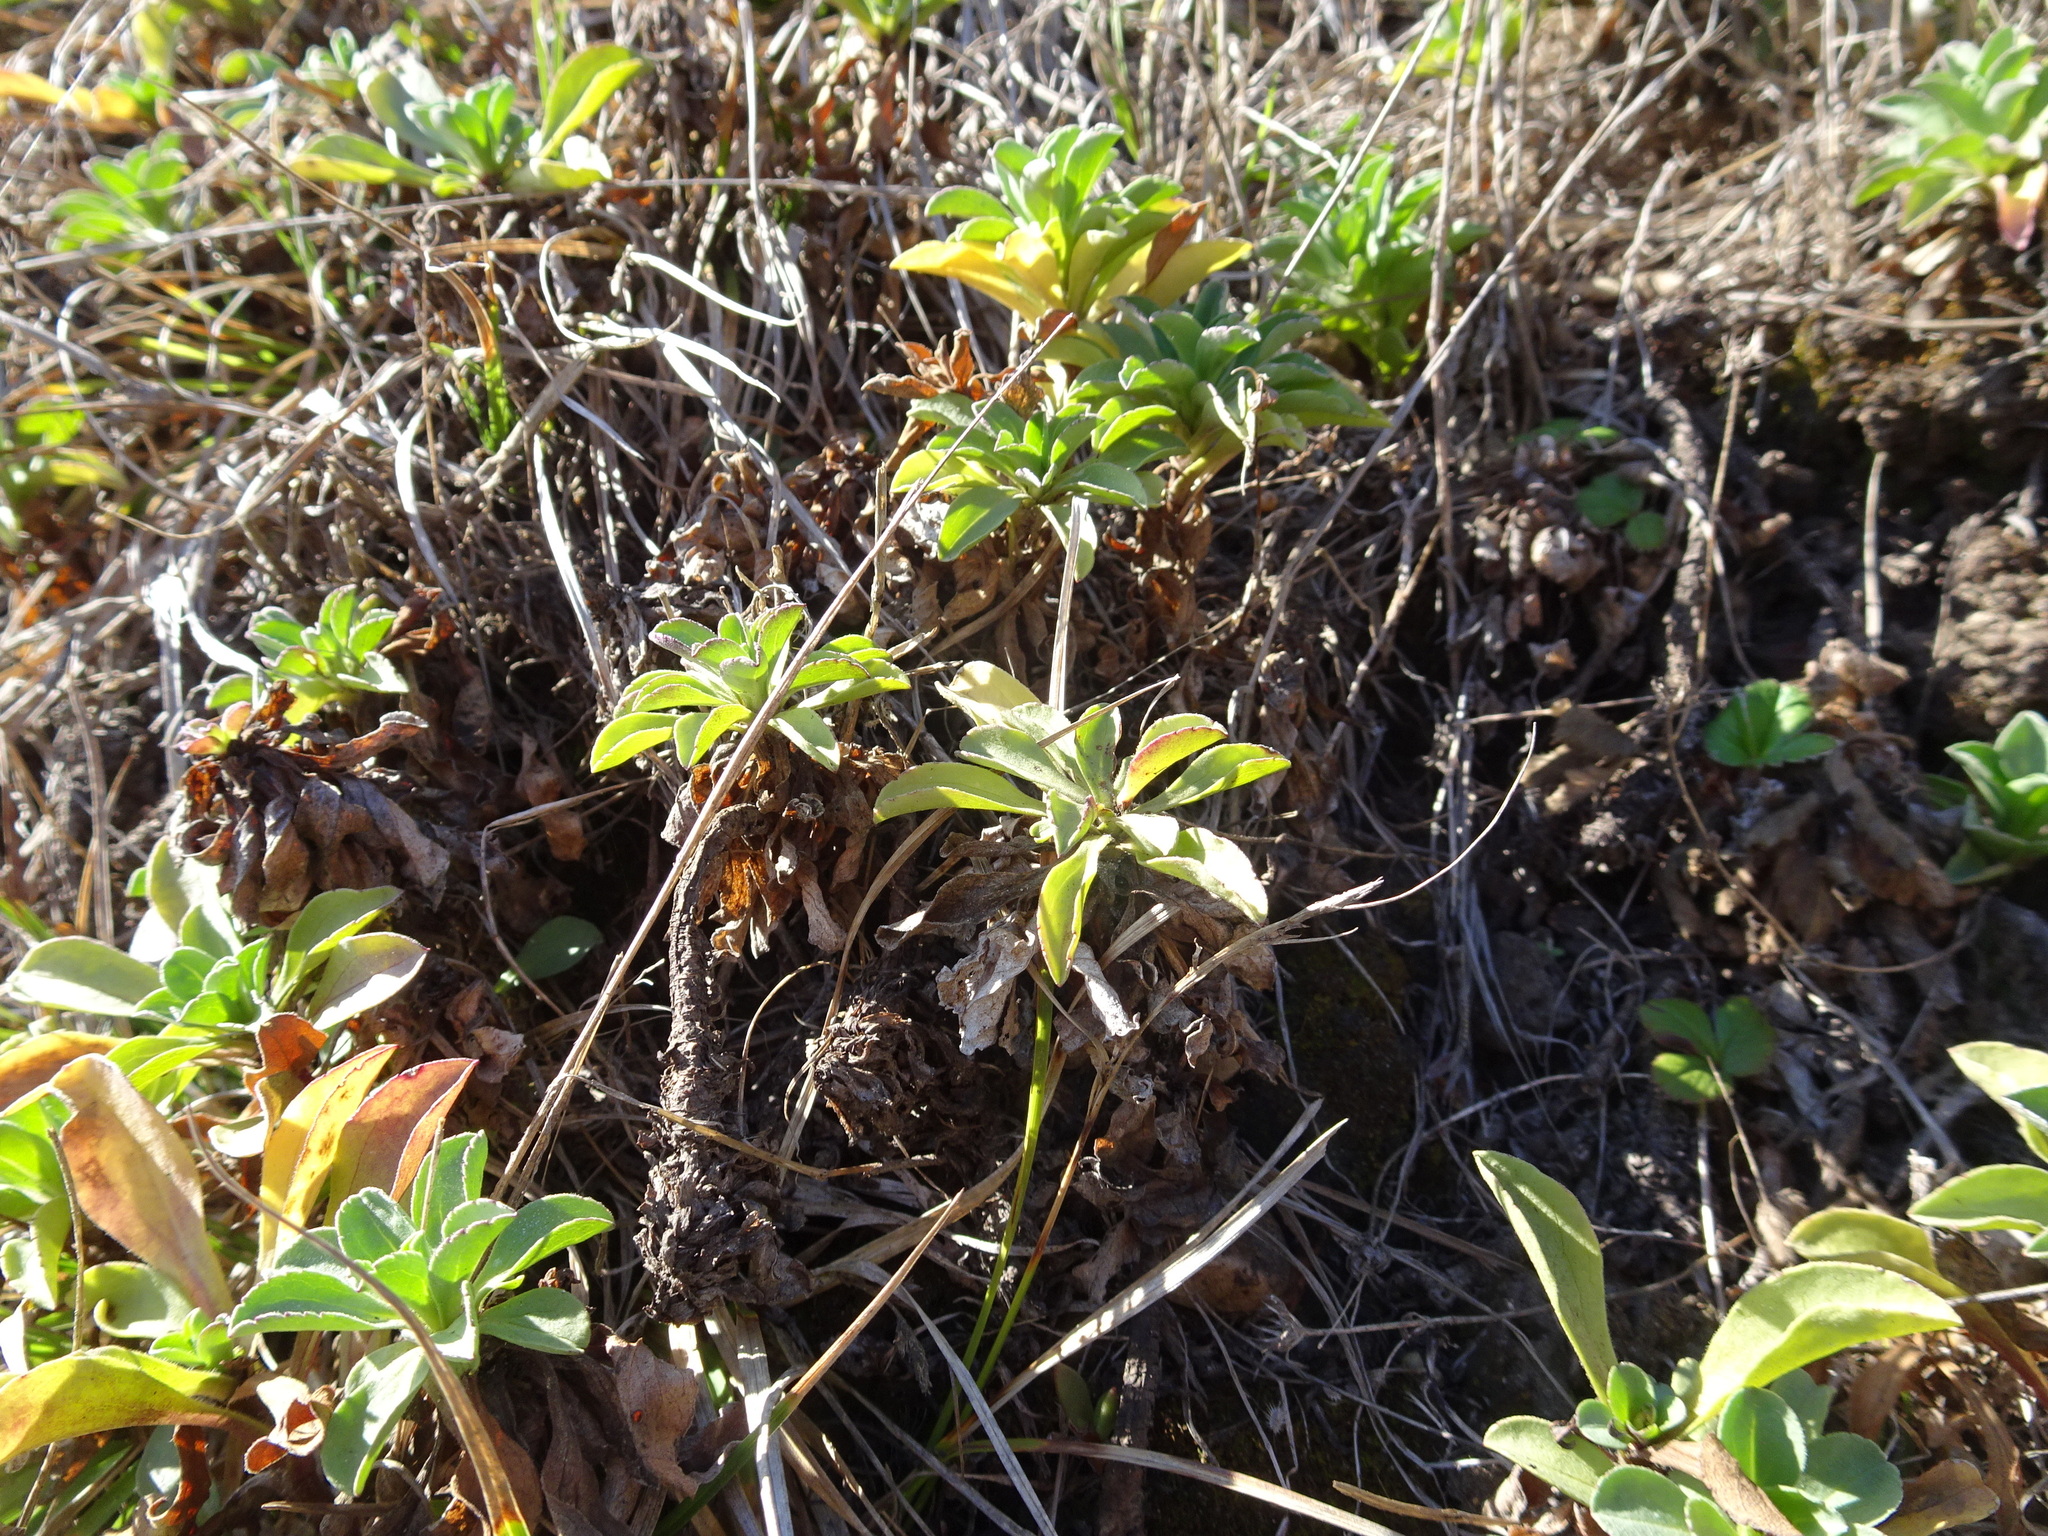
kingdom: Plantae
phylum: Tracheophyta
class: Magnoliopsida
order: Asterales
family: Asteraceae
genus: Erigeron
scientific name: Erigeron glaucus
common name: Seaside daisy
